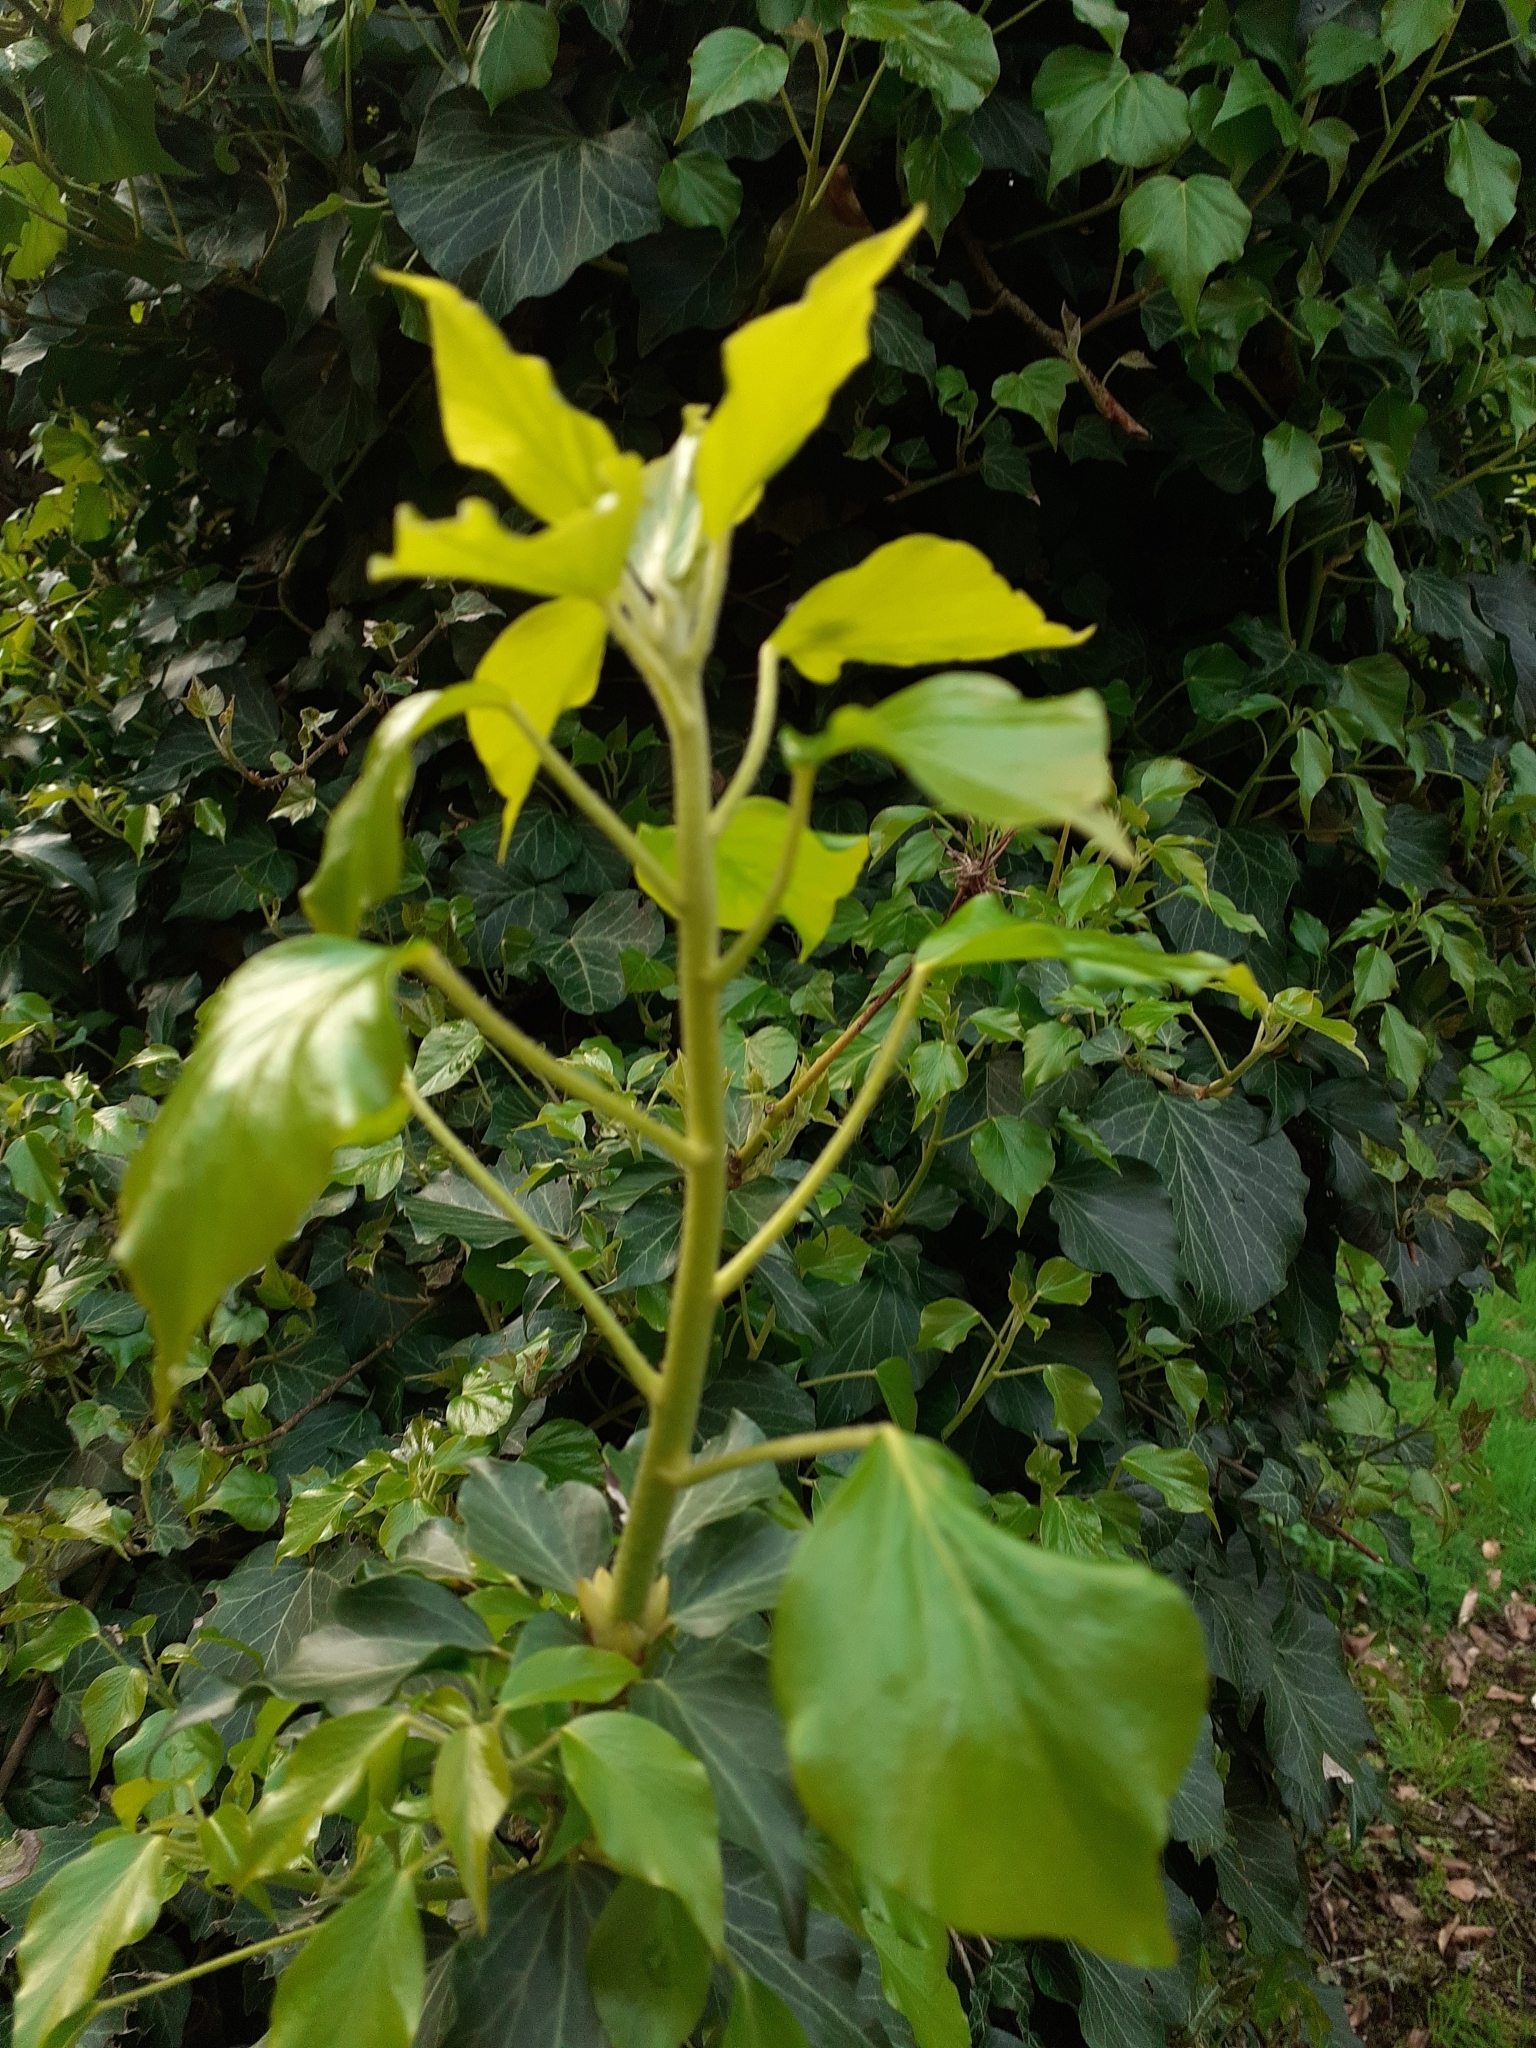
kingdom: Plantae
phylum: Tracheophyta
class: Magnoliopsida
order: Apiales
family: Araliaceae
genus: Hedera
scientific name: Hedera helix
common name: Ivy
